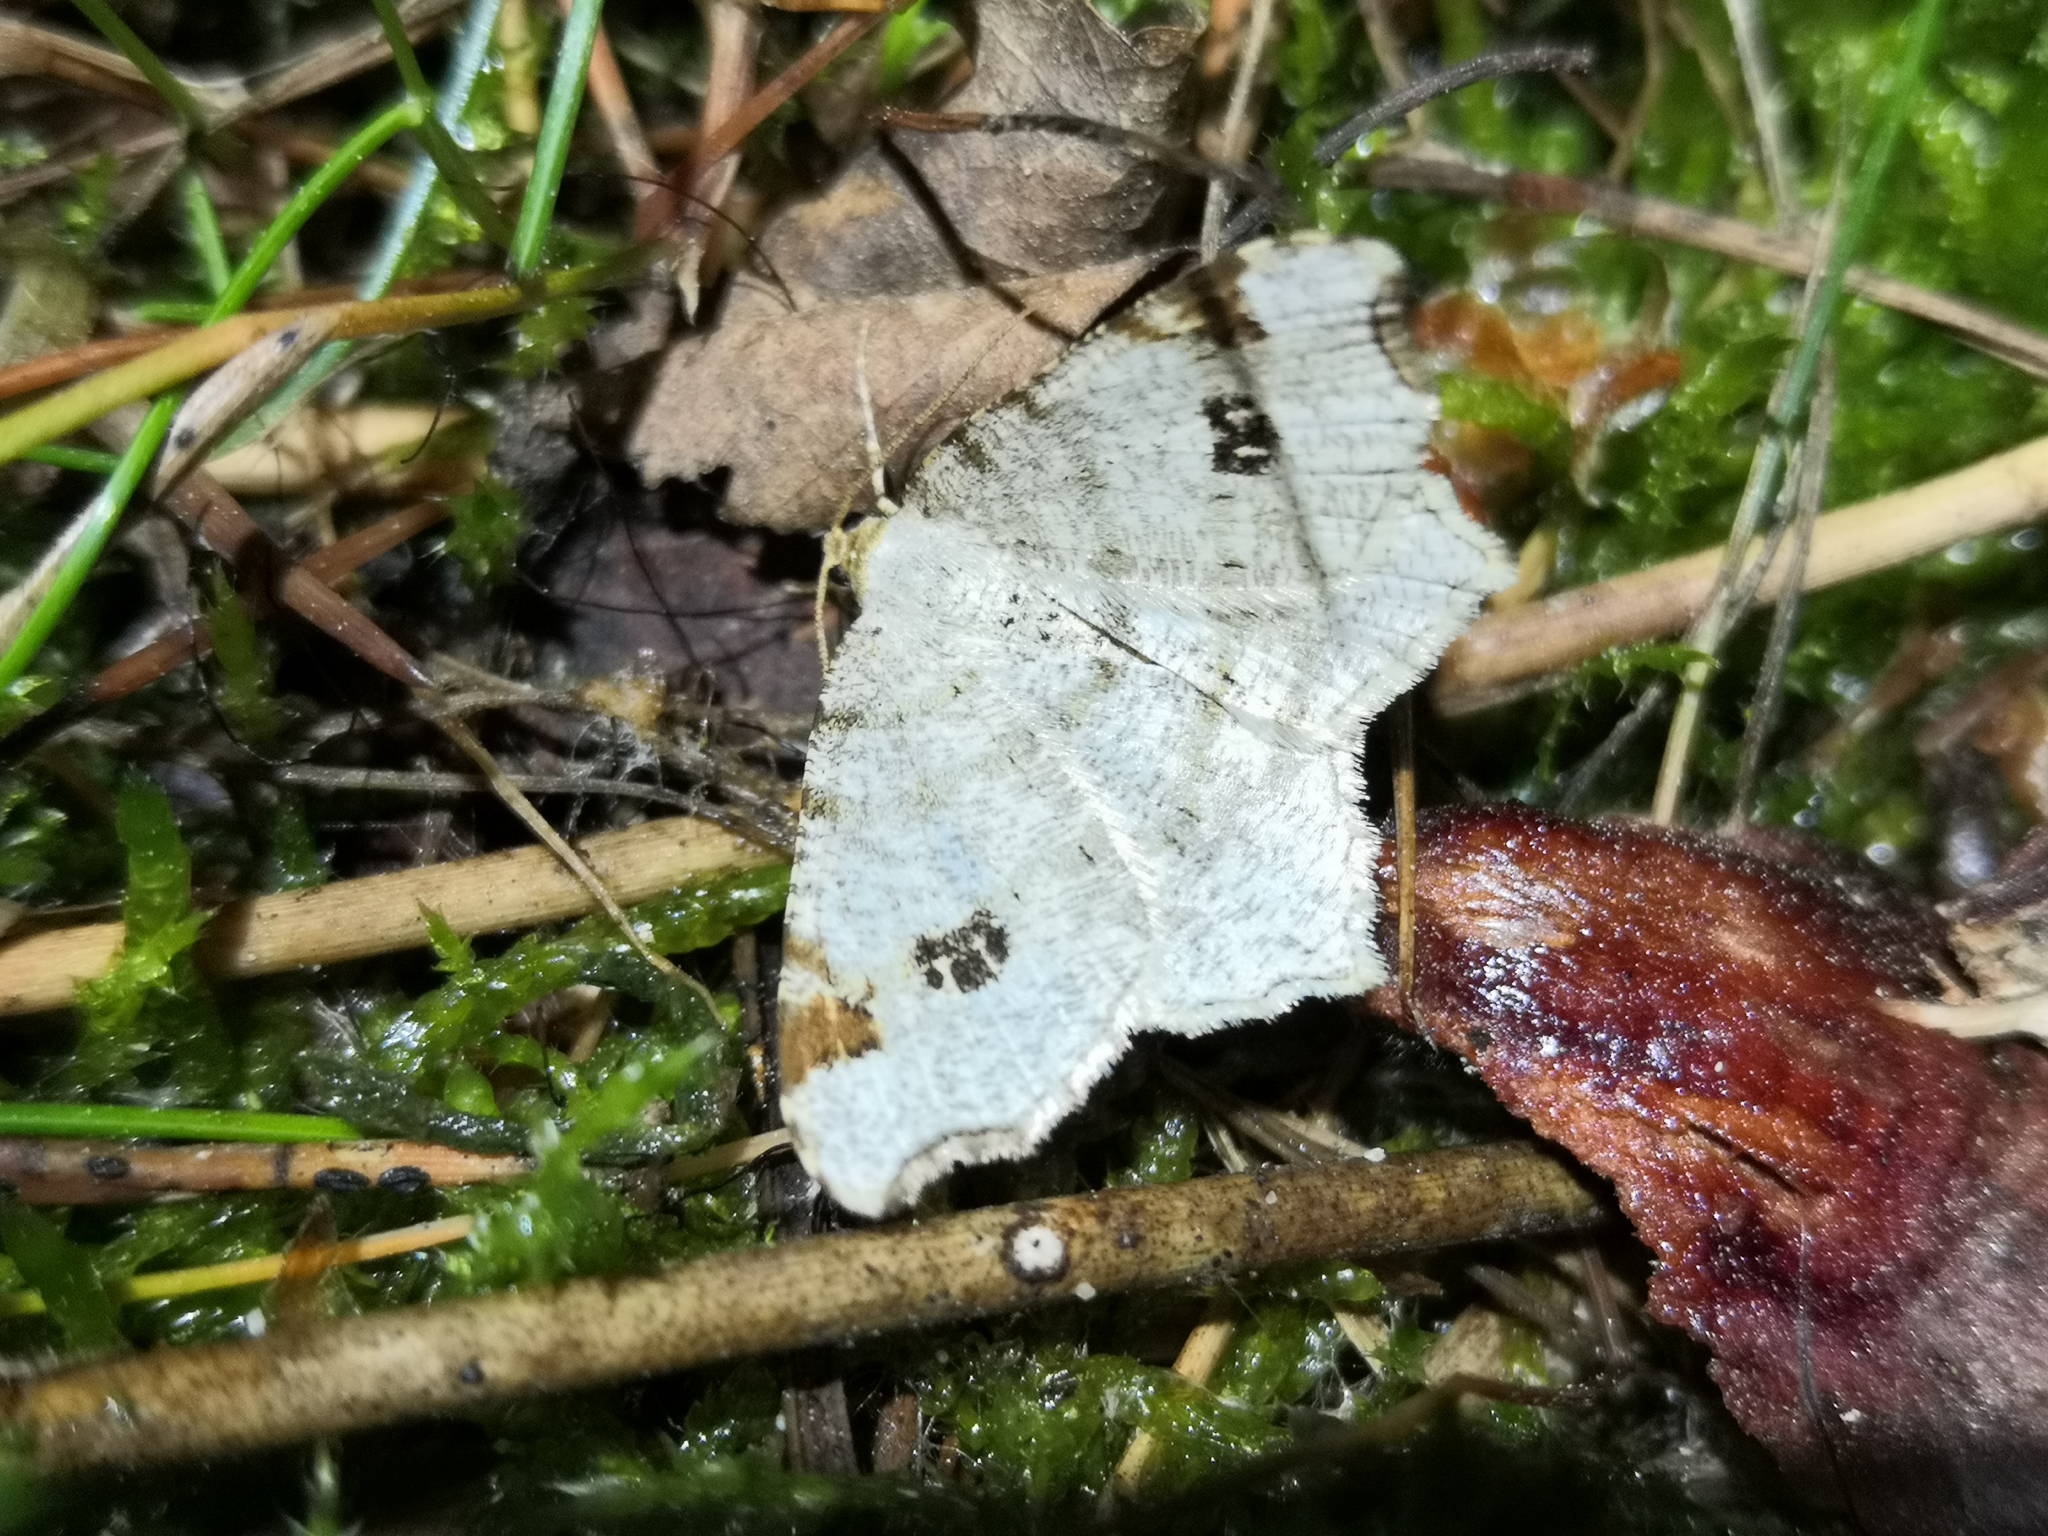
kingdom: Animalia
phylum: Arthropoda
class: Insecta
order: Lepidoptera
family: Geometridae
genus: Macaria
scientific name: Macaria notata
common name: Peacock moth
